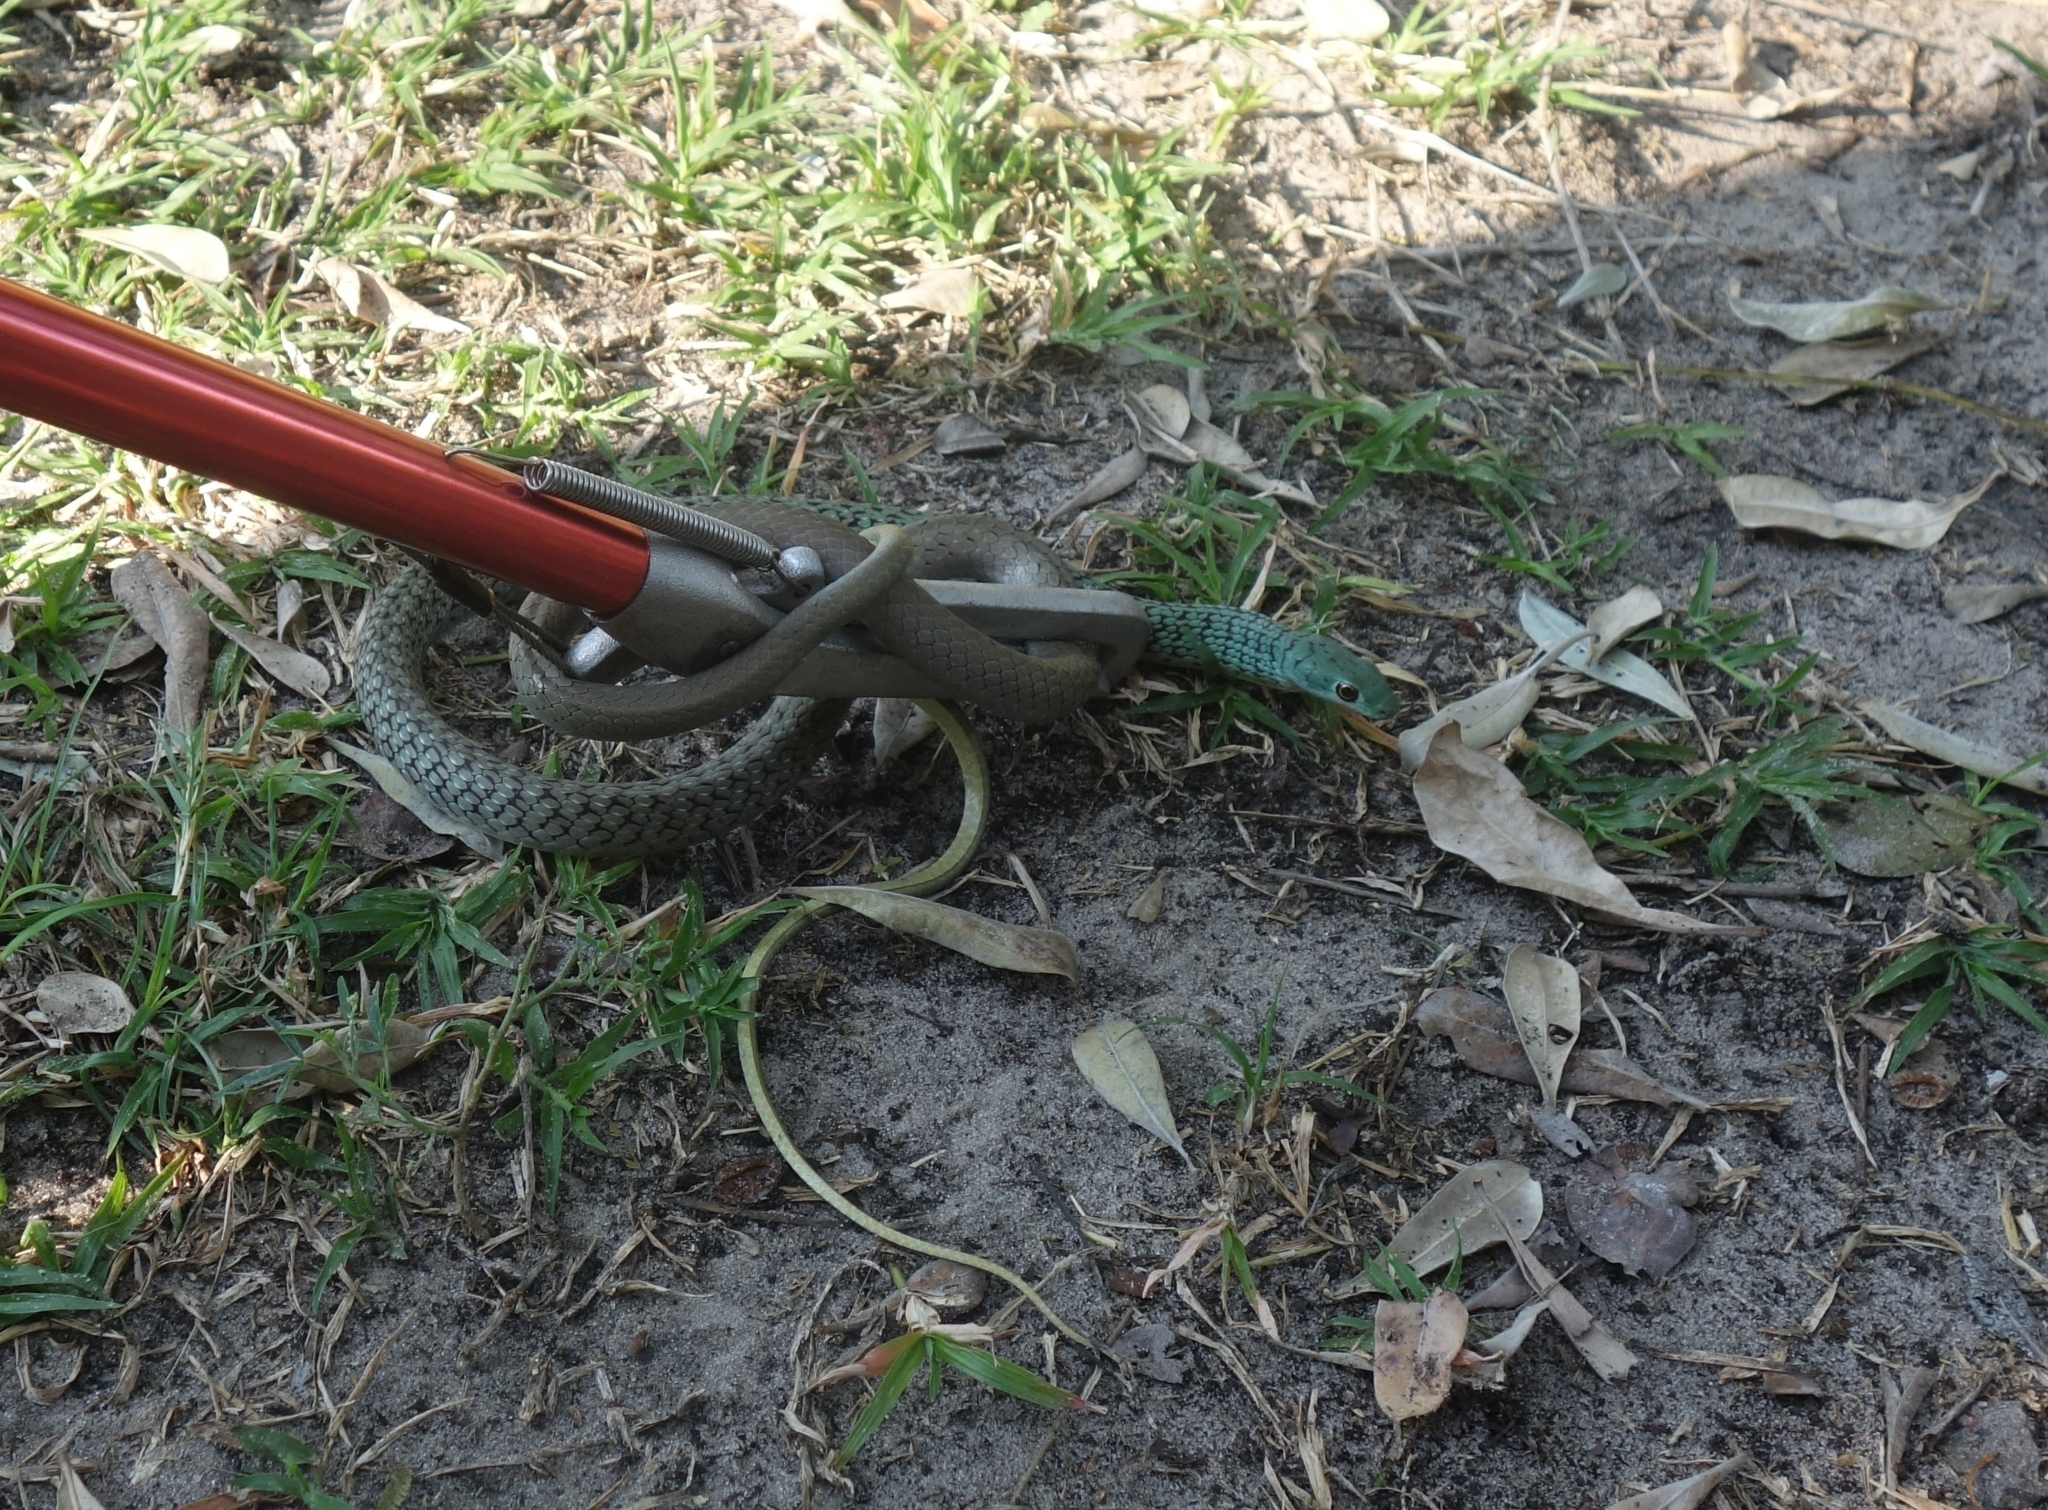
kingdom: Animalia
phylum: Chordata
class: Squamata
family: Colubridae
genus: Philothamnus
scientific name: Philothamnus semivariegatus
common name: Spotted bush snake
